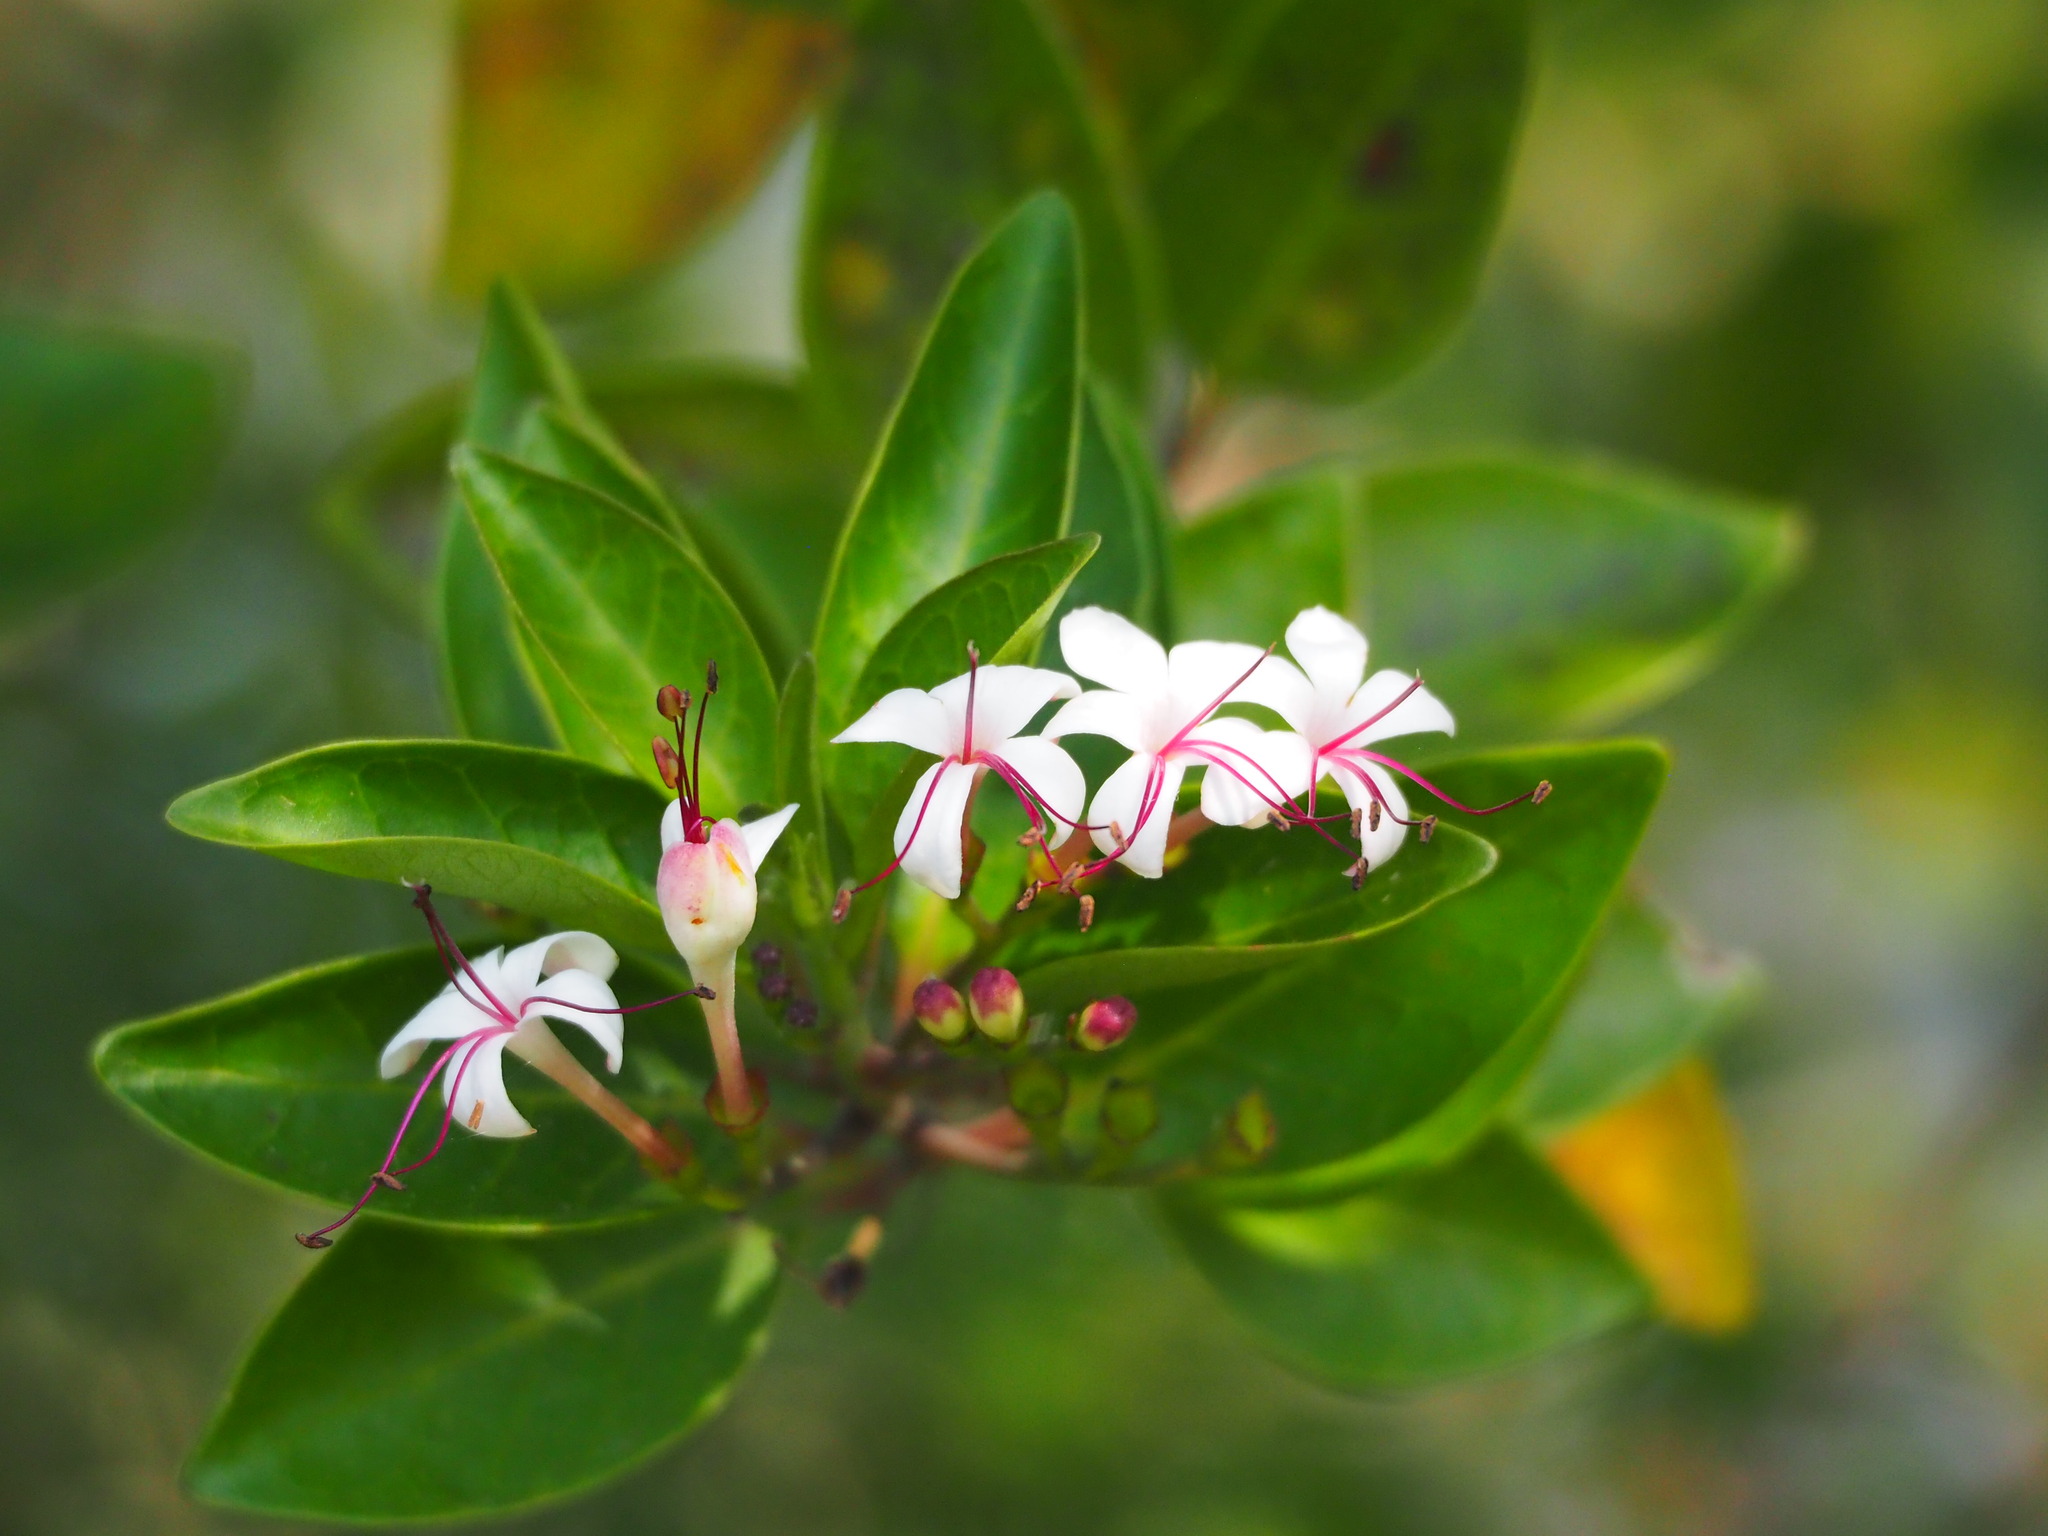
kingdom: Plantae
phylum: Tracheophyta
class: Magnoliopsida
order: Lamiales
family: Lamiaceae
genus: Volkameria
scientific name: Volkameria inermis
